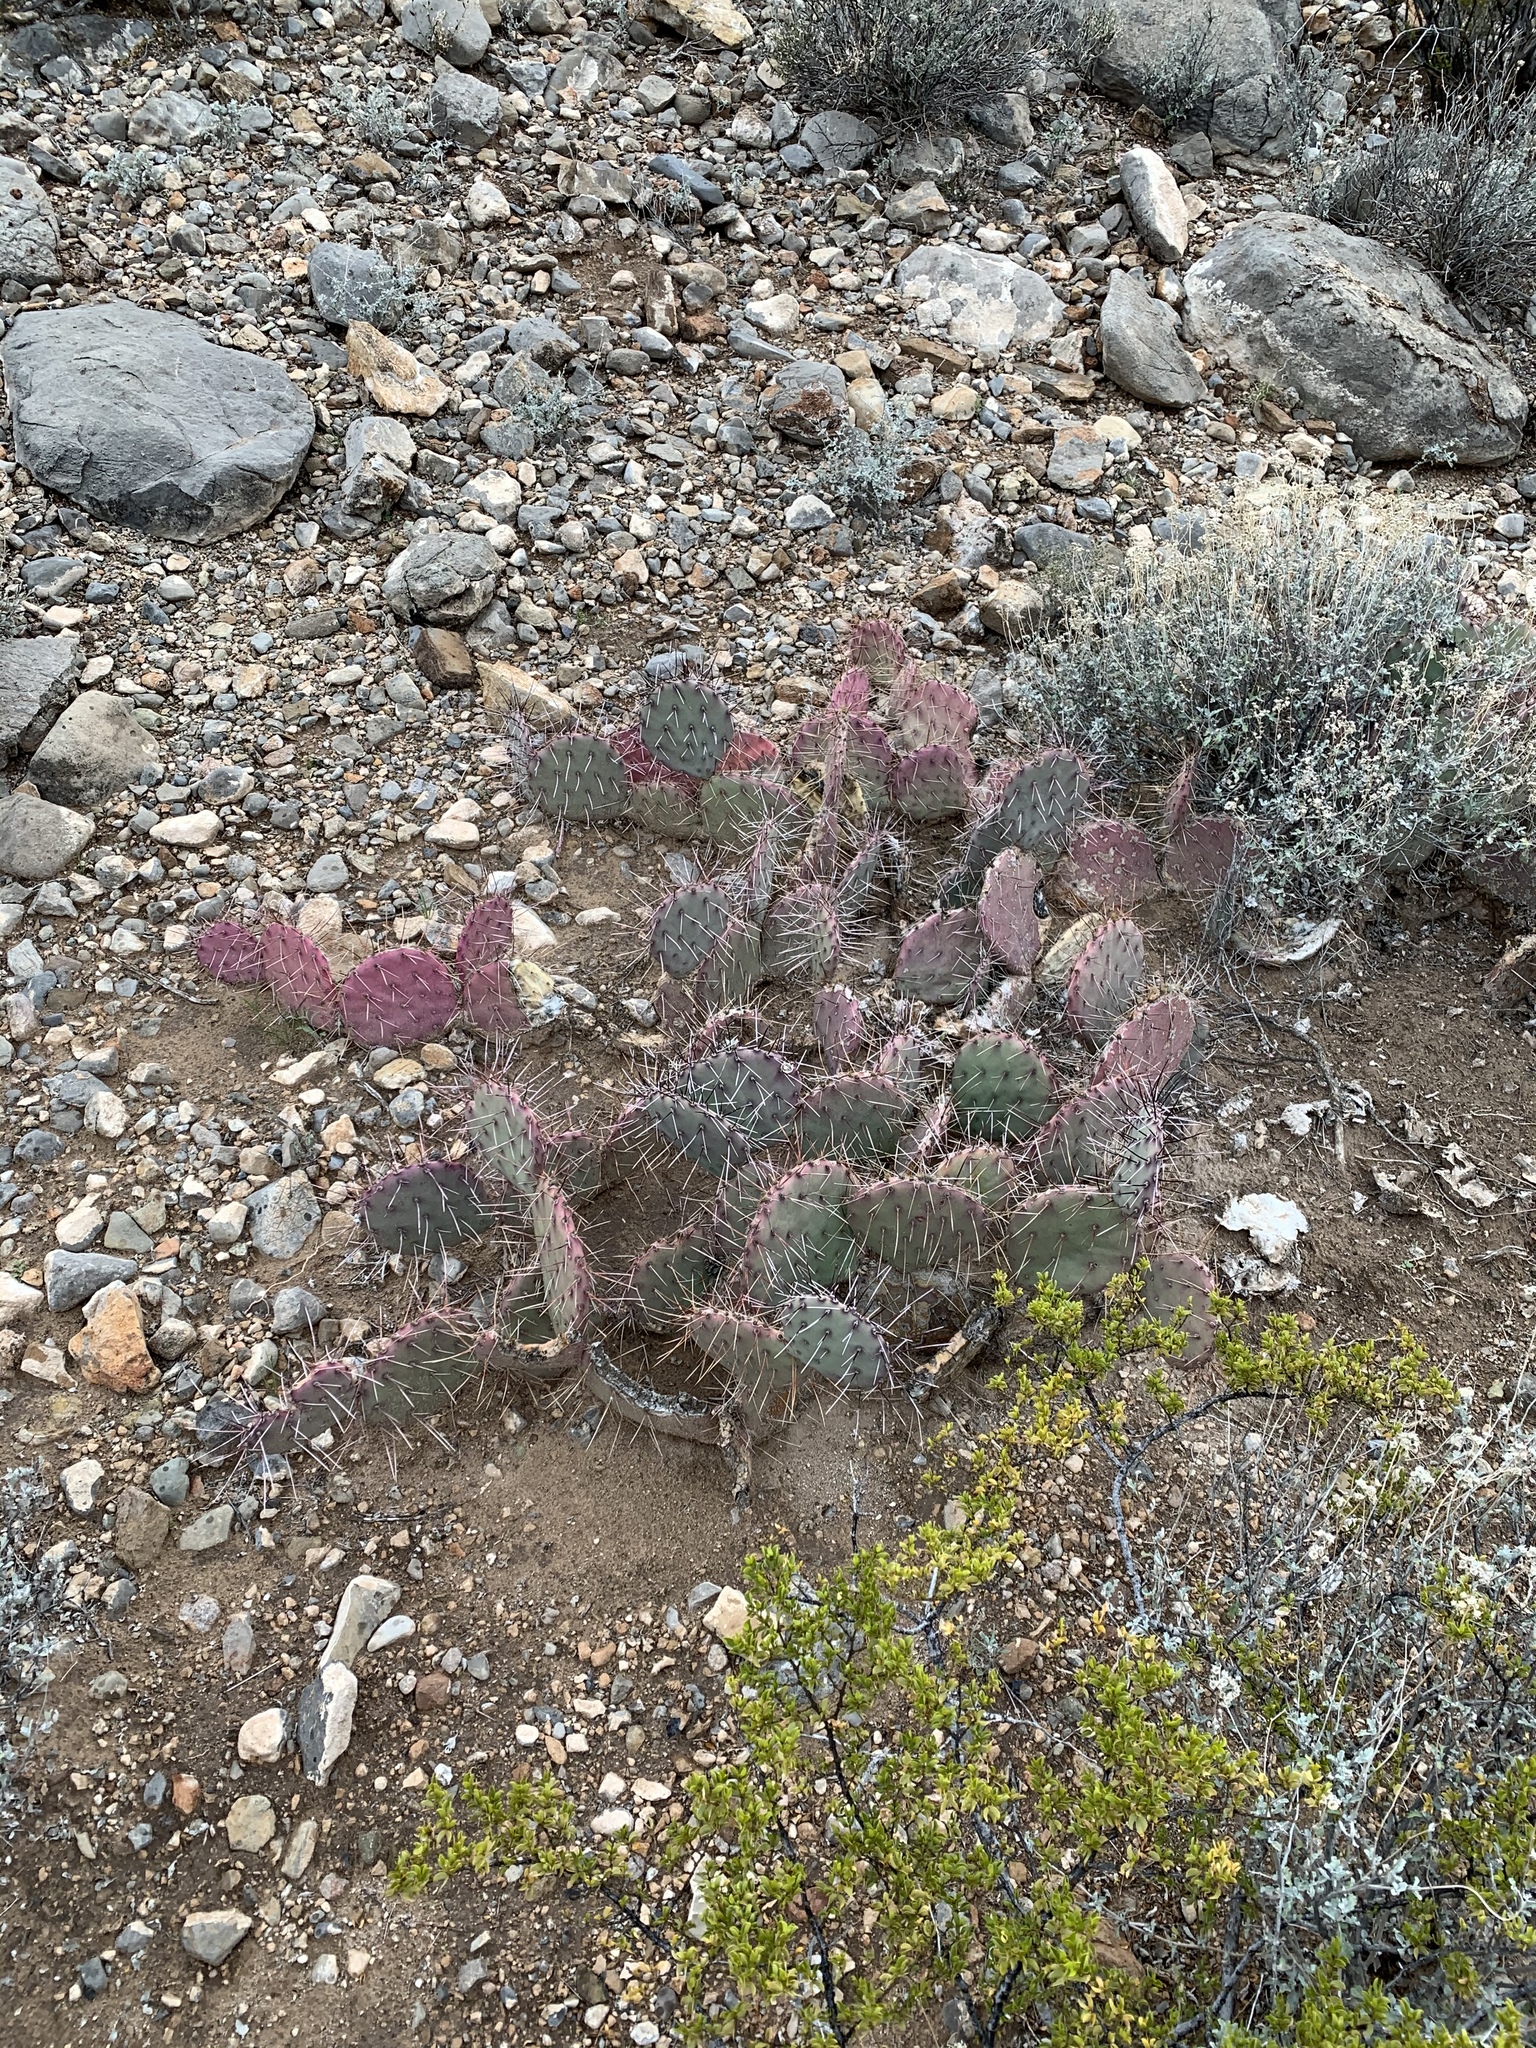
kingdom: Plantae
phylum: Tracheophyta
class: Magnoliopsida
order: Caryophyllales
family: Cactaceae
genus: Opuntia
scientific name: Opuntia macrocentra
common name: Purple prickly-pear
